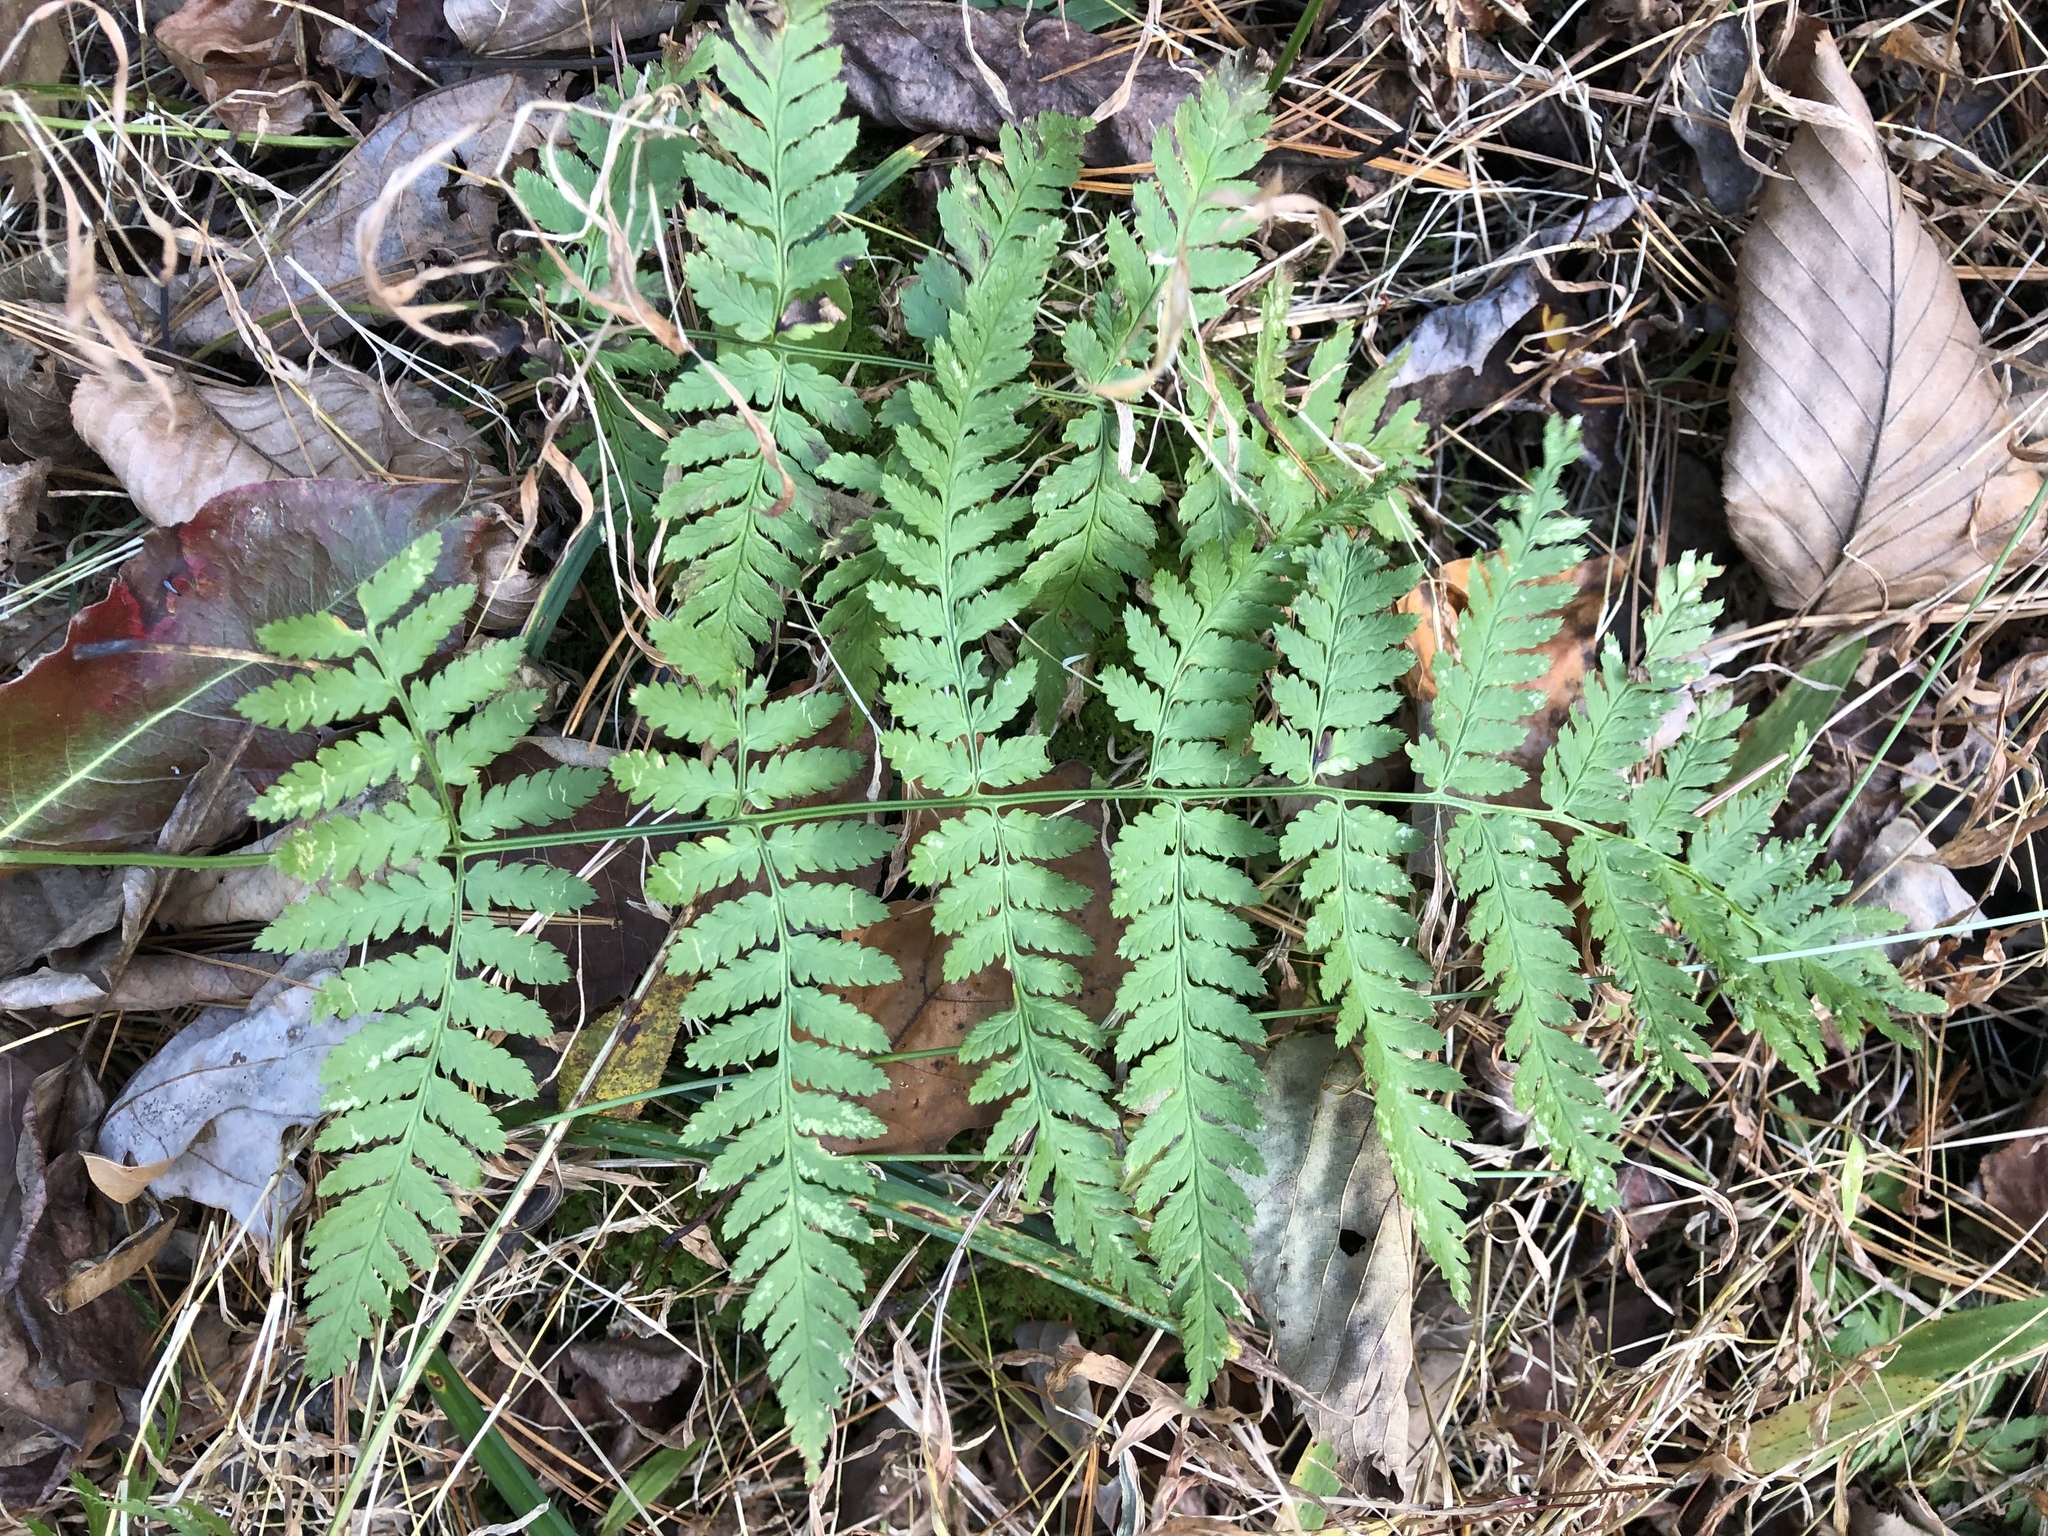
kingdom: Plantae
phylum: Tracheophyta
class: Polypodiopsida
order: Polypodiales
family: Dryopteridaceae
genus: Dryopteris
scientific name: Dryopteris carthusiana
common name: Narrow buckler-fern
